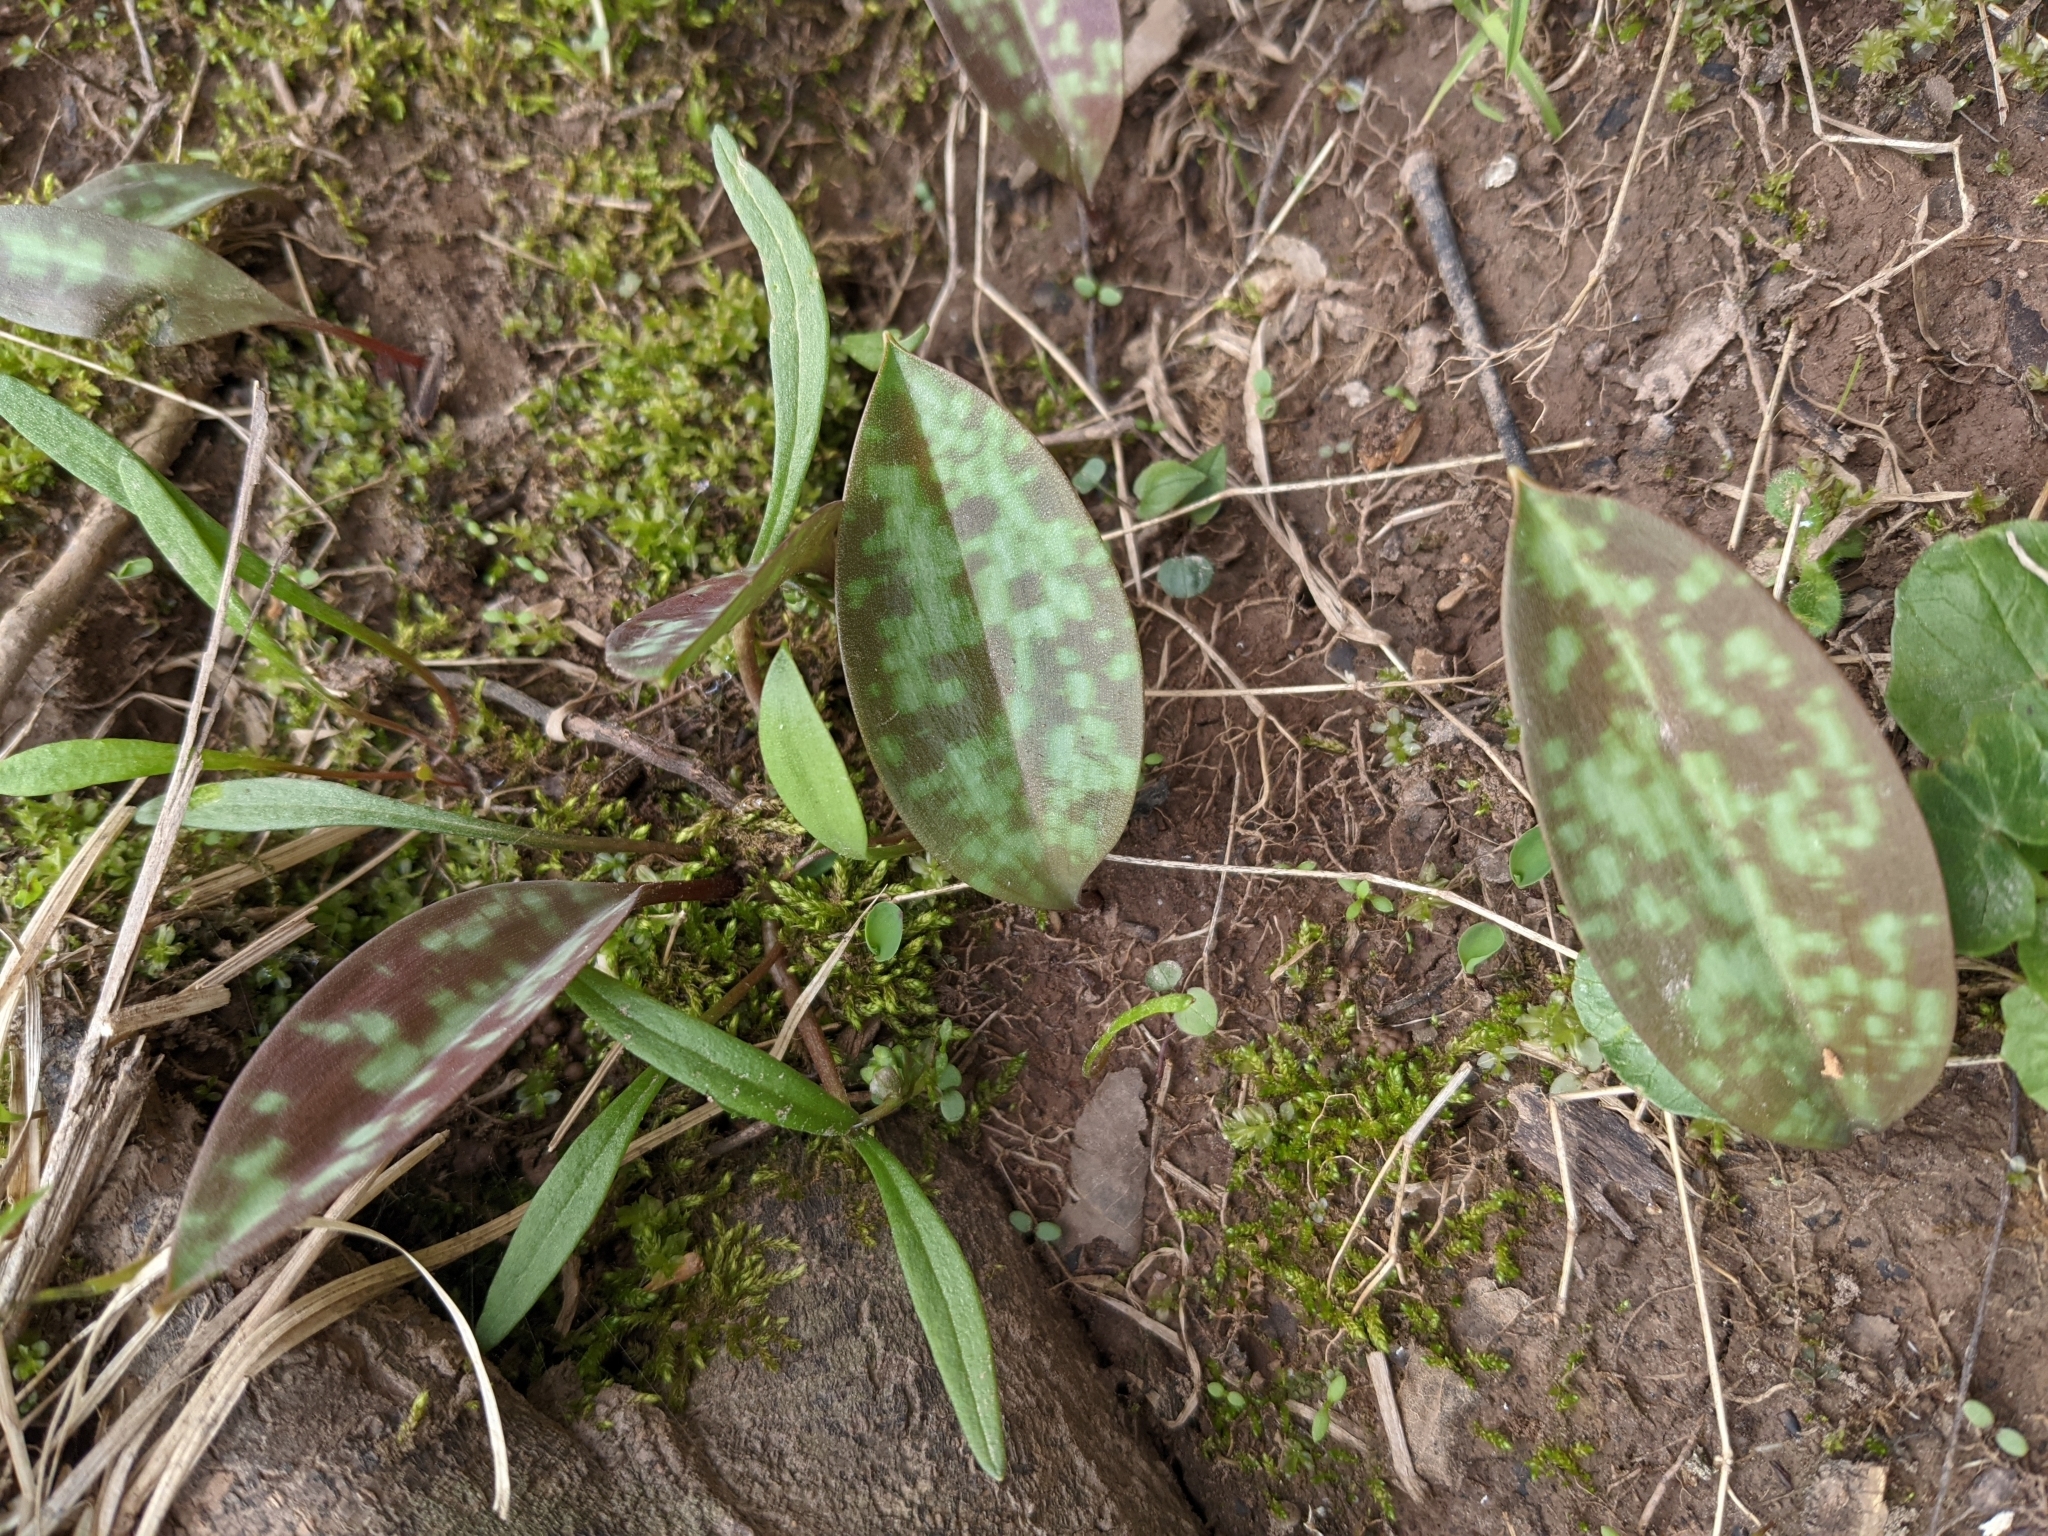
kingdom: Plantae
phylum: Tracheophyta
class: Liliopsida
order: Liliales
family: Liliaceae
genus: Erythronium
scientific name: Erythronium americanum
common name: Yellow adder's-tongue
